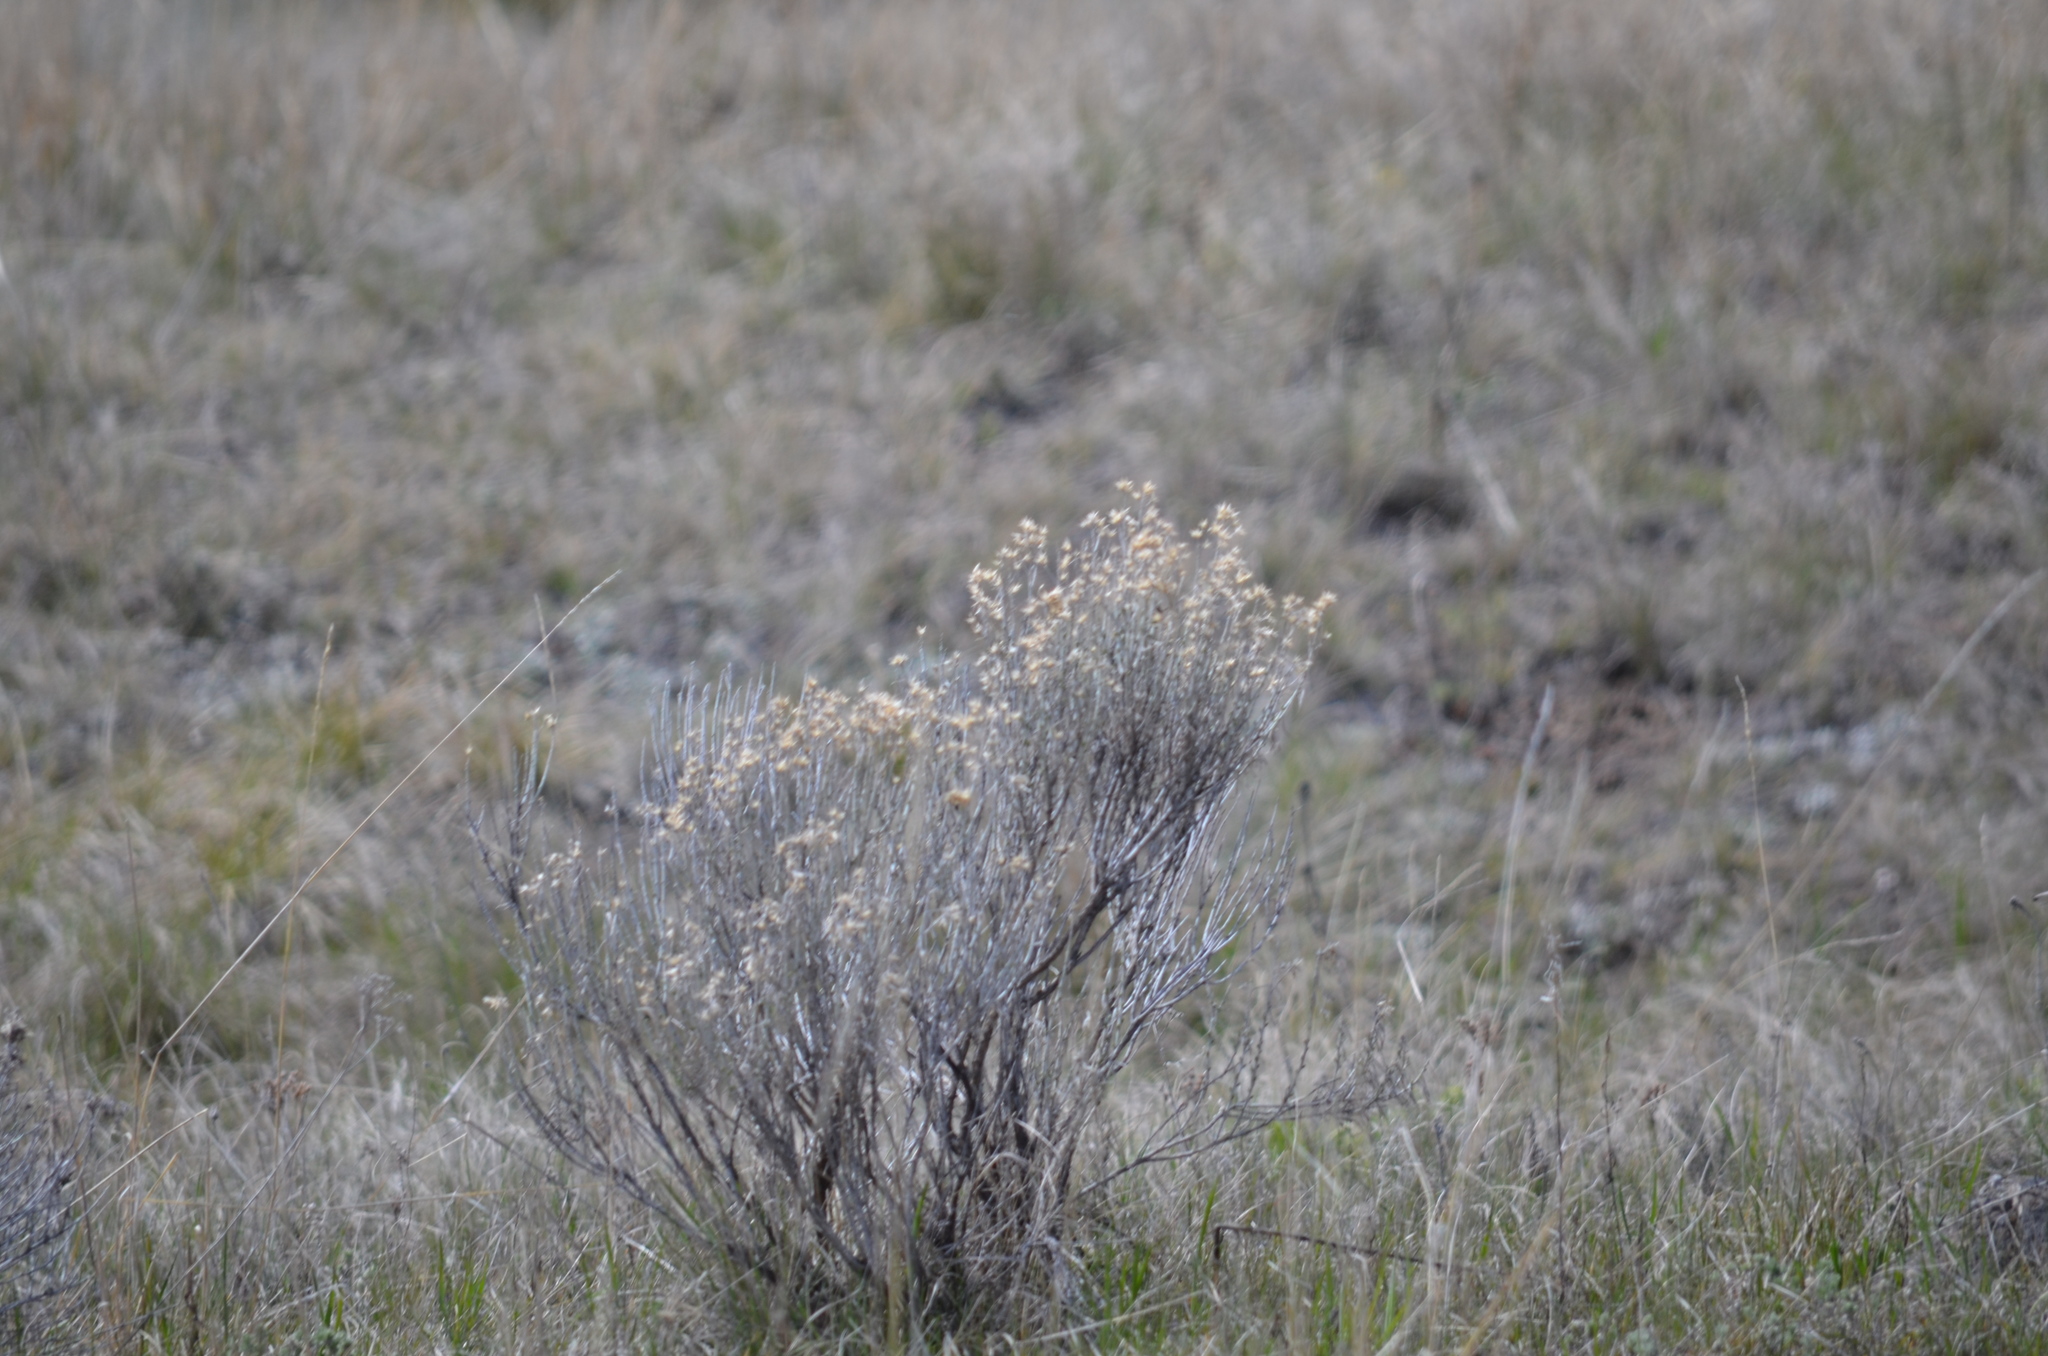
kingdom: Plantae
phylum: Tracheophyta
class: Magnoliopsida
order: Asterales
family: Asteraceae
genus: Ericameria
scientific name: Ericameria nauseosa
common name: Rubber rabbitbrush
